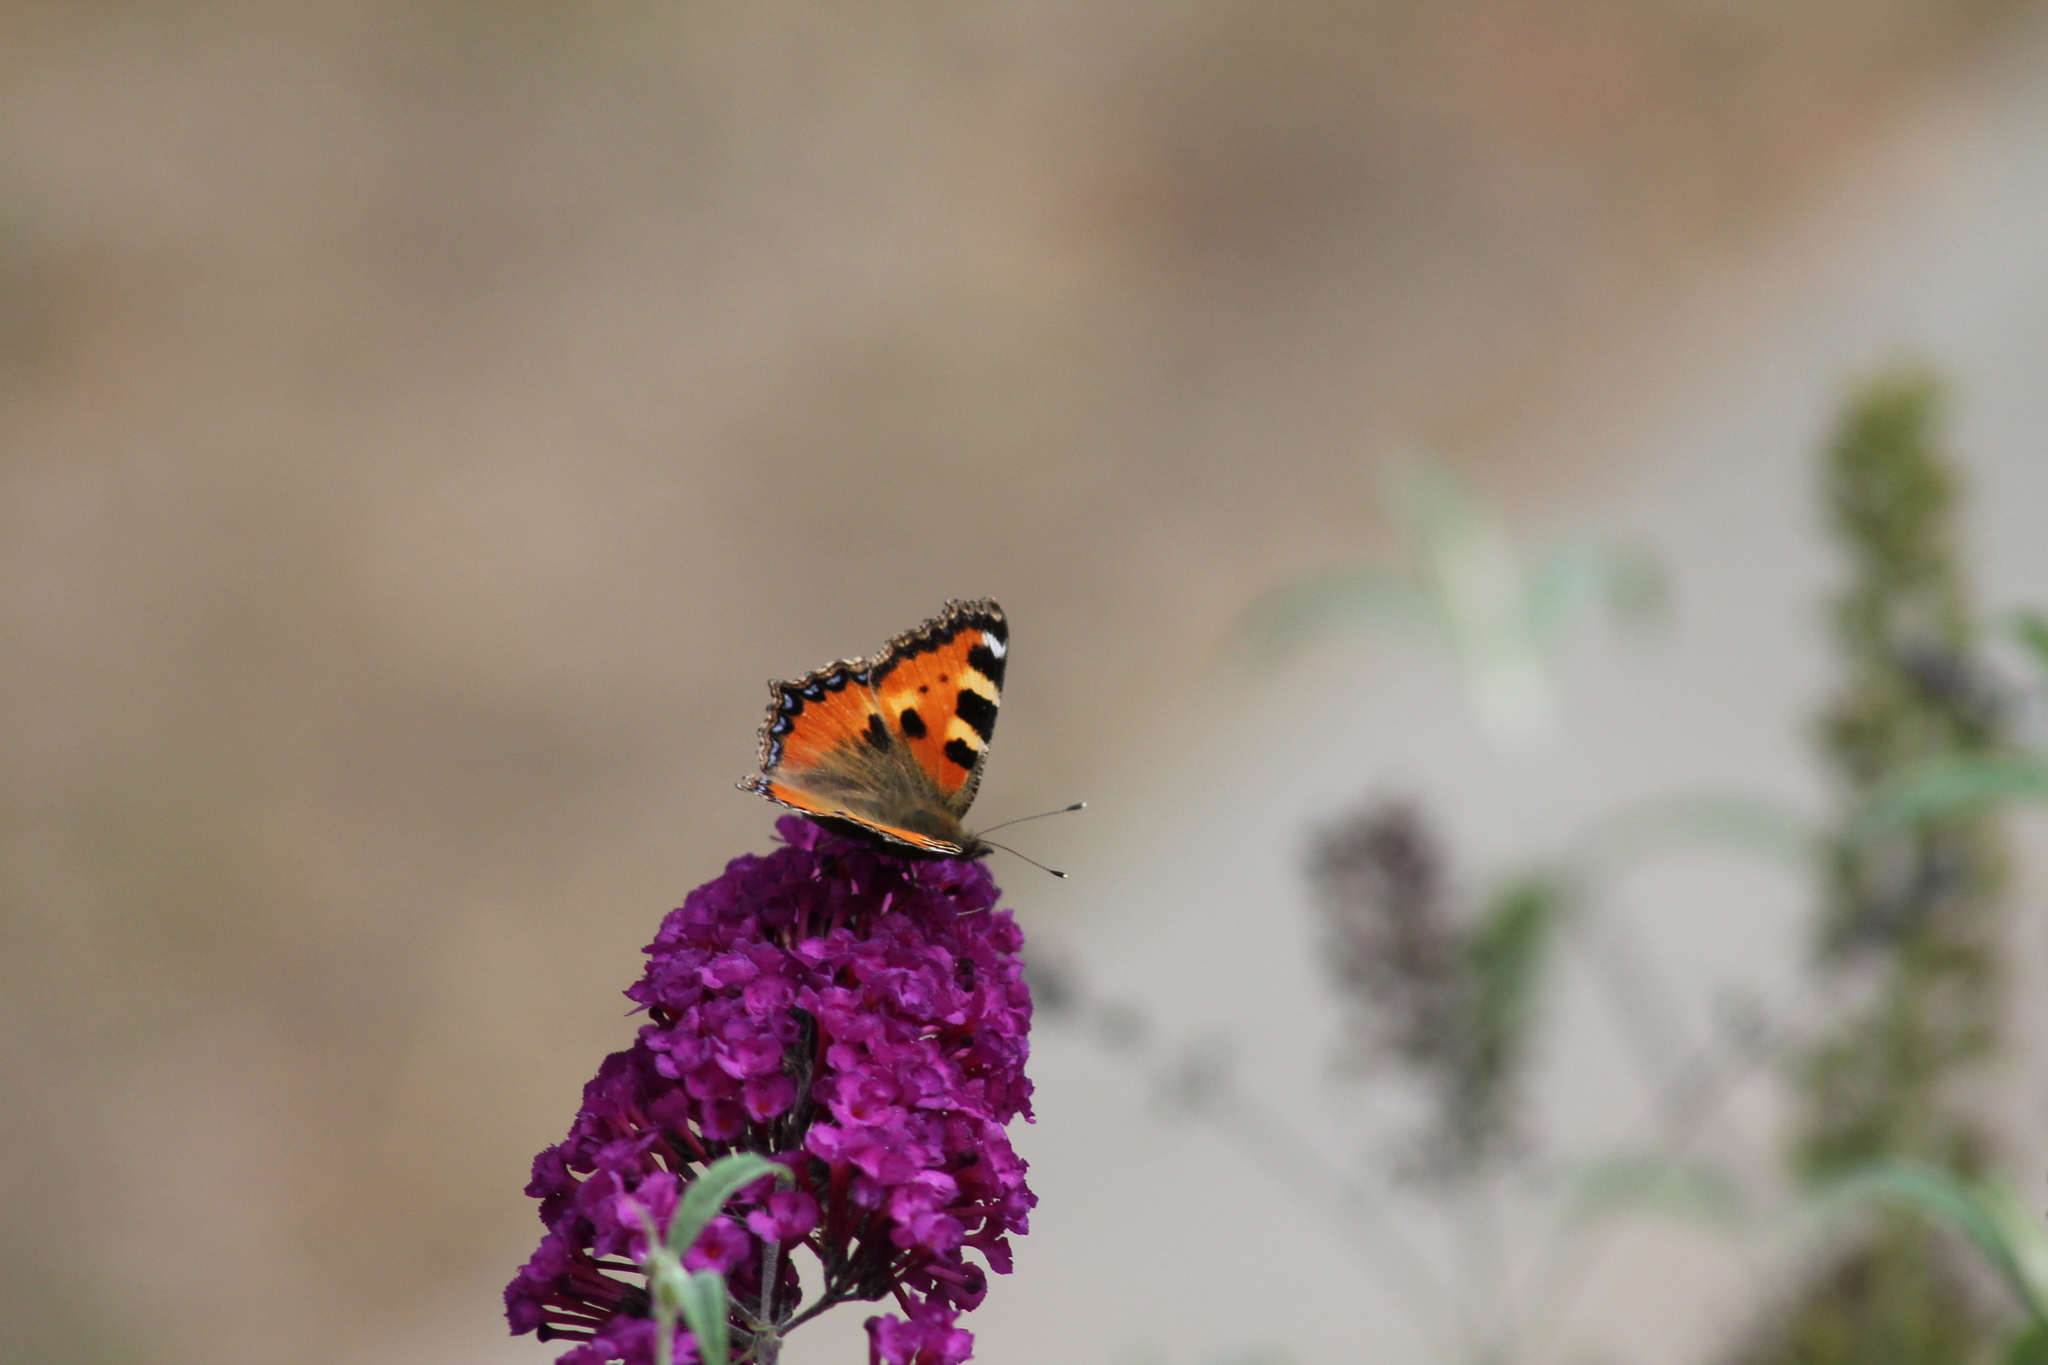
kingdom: Animalia
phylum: Arthropoda
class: Insecta
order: Lepidoptera
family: Nymphalidae
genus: Aglais
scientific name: Aglais urticae
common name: Small tortoiseshell
